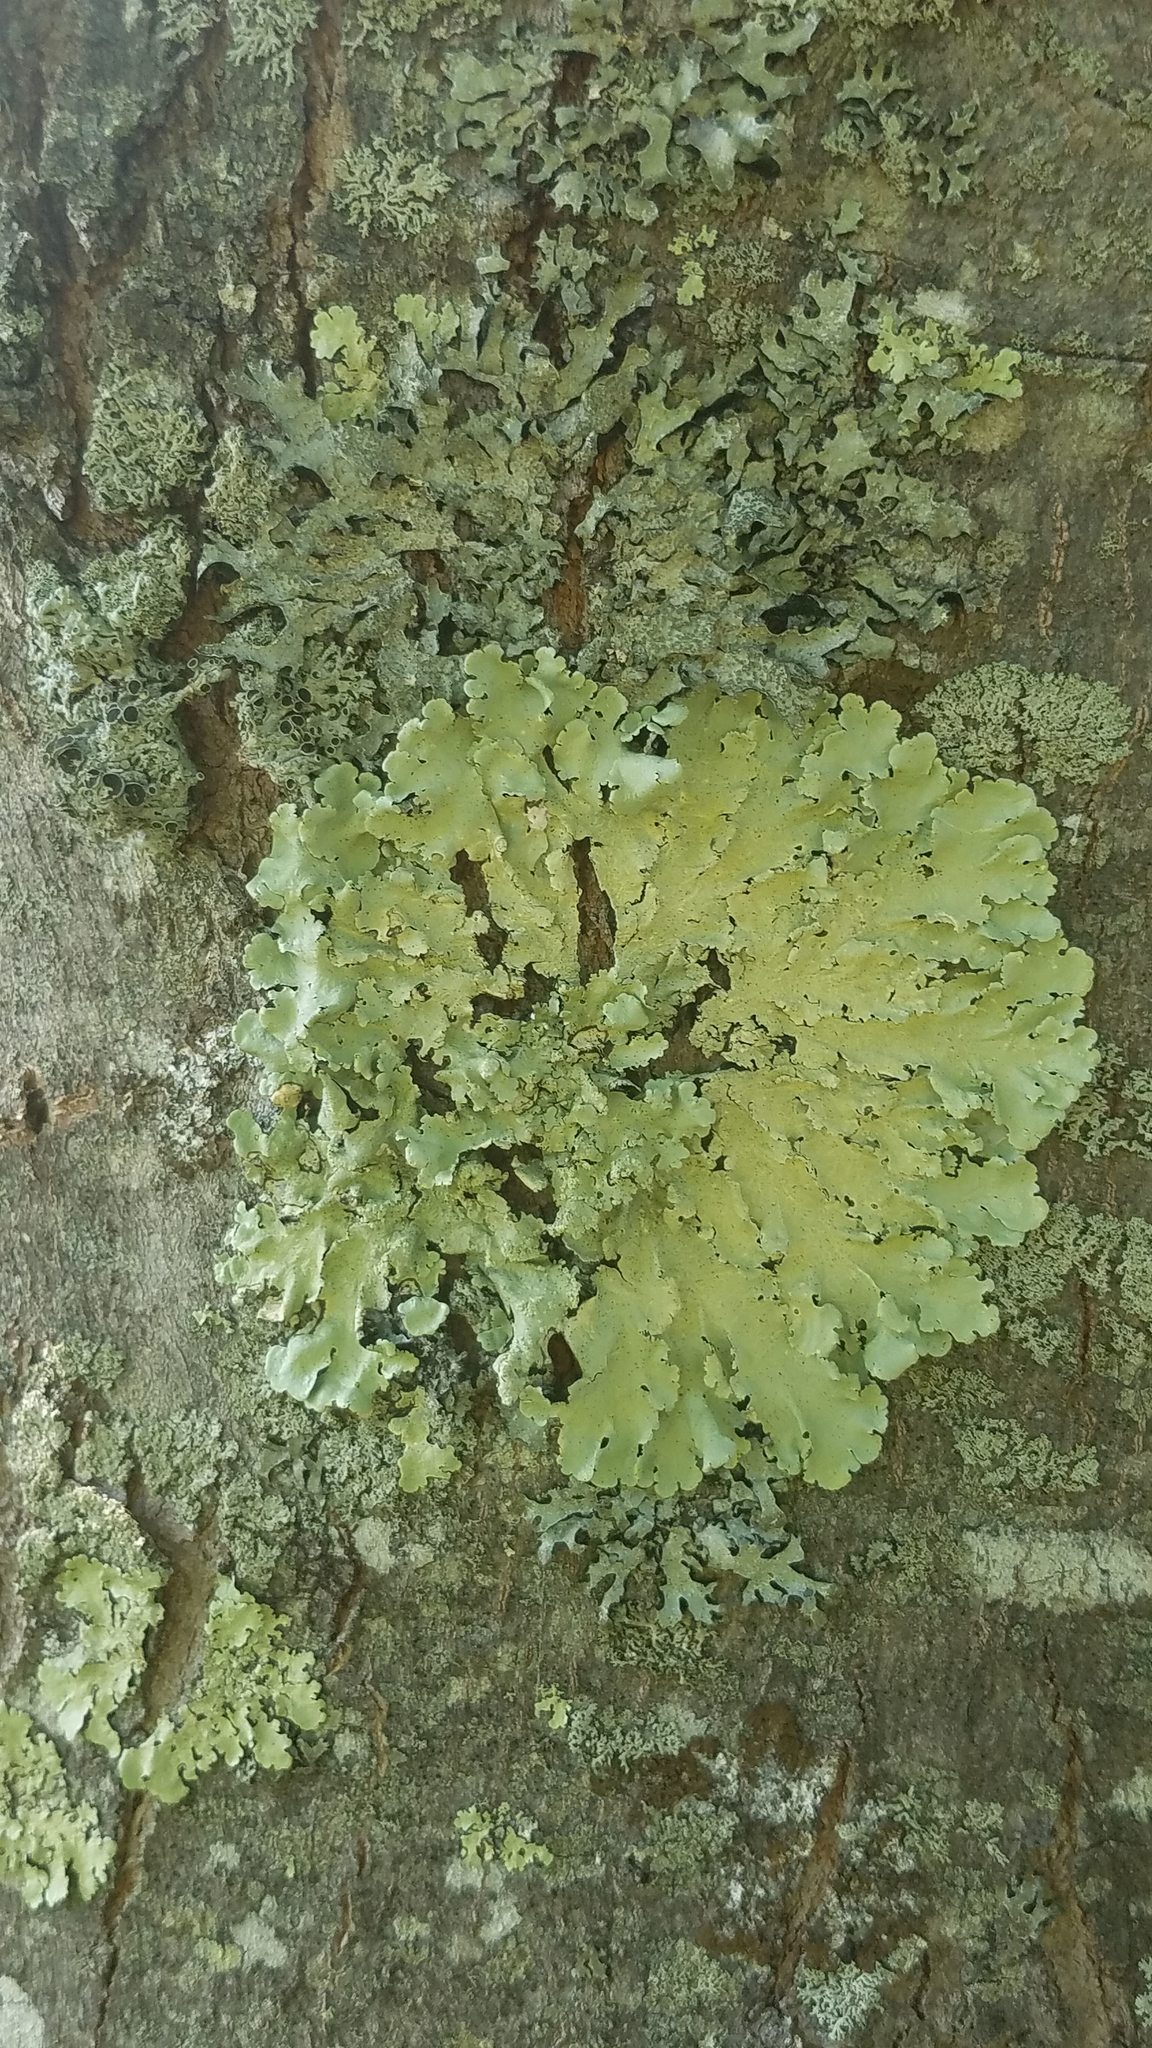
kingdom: Fungi
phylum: Ascomycota
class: Lecanoromycetes
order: Lecanorales
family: Parmeliaceae
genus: Flavoparmelia
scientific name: Flavoparmelia caperata
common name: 40-mile per hour lichen
